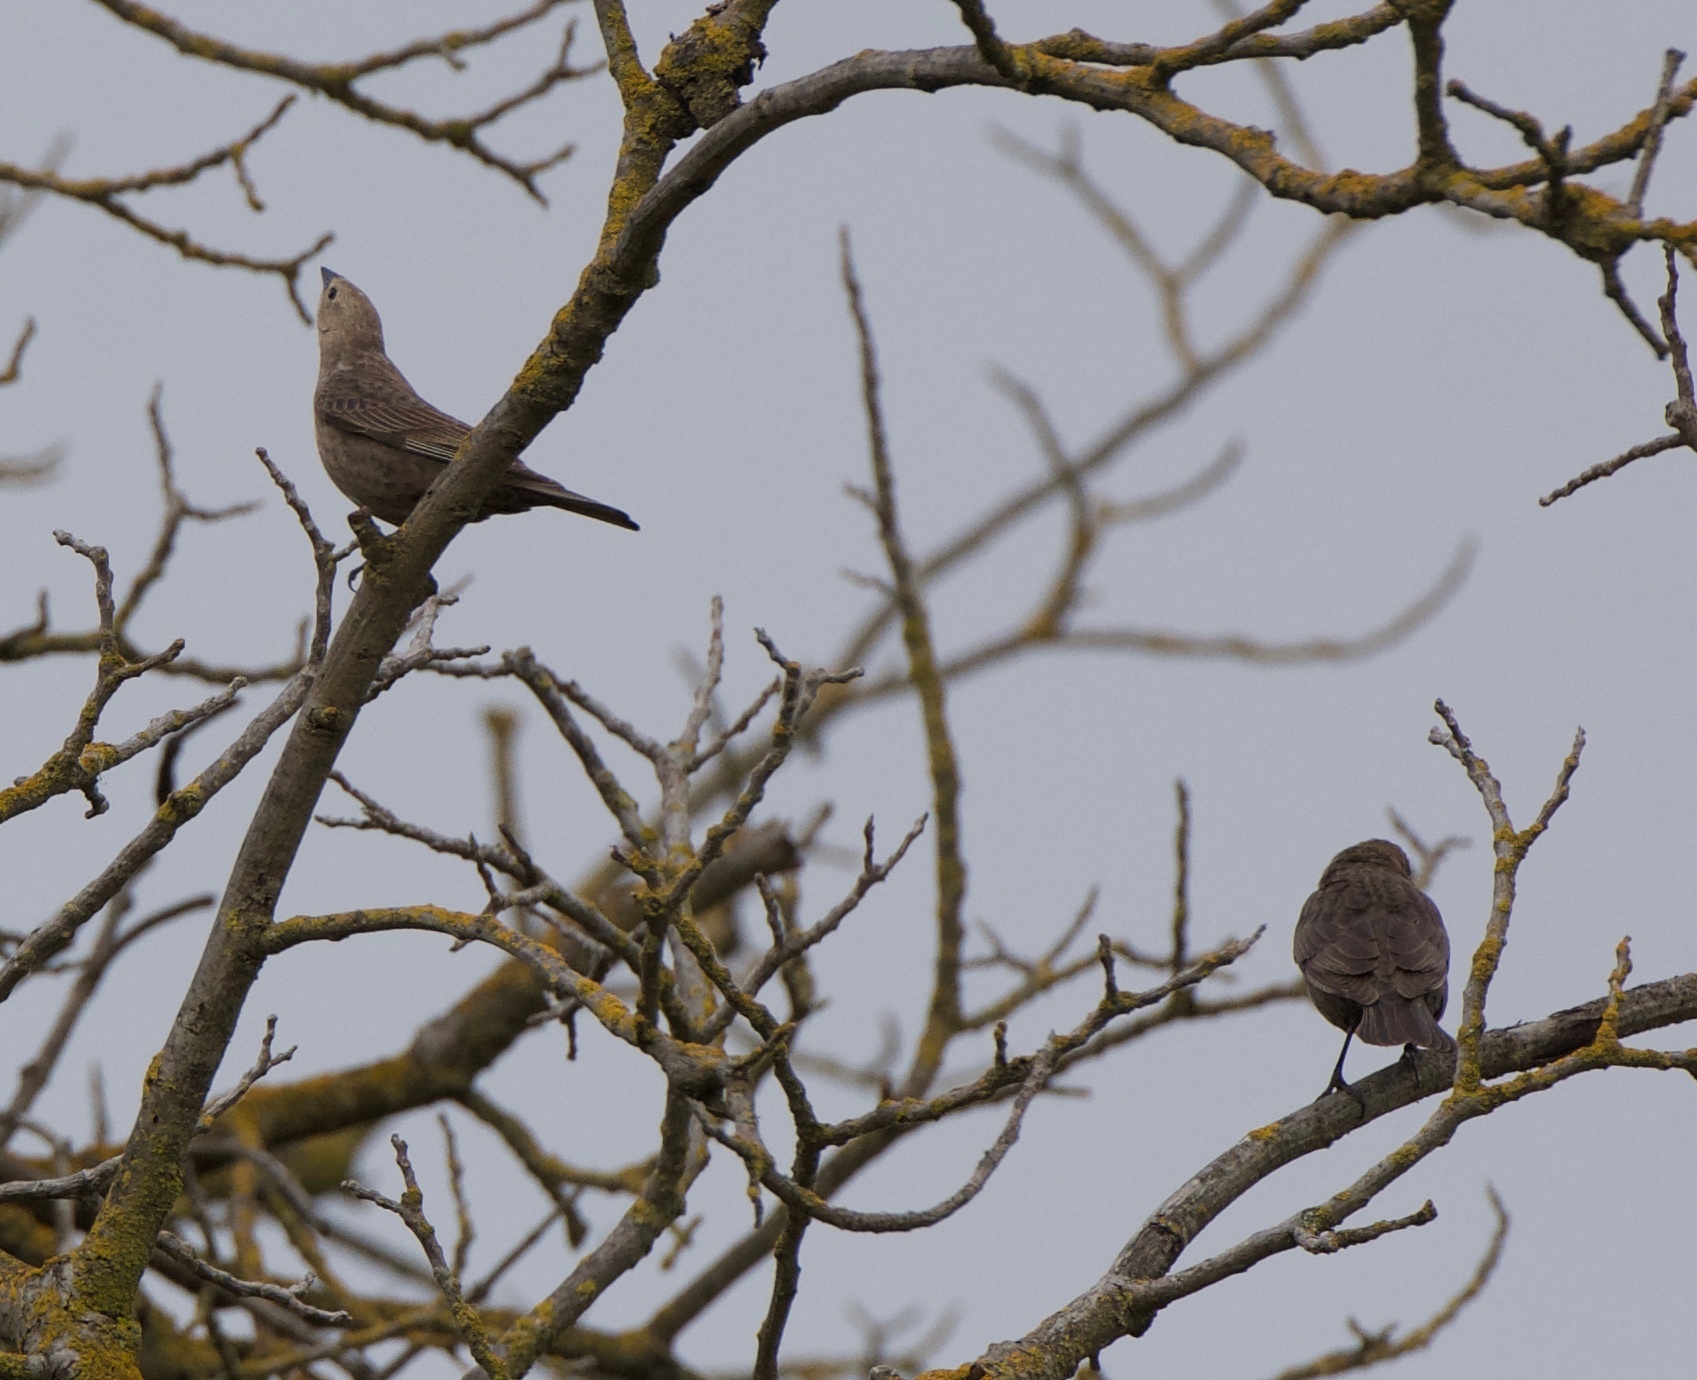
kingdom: Animalia
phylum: Chordata
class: Aves
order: Passeriformes
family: Icteridae
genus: Molothrus
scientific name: Molothrus ater
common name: Brown-headed cowbird
